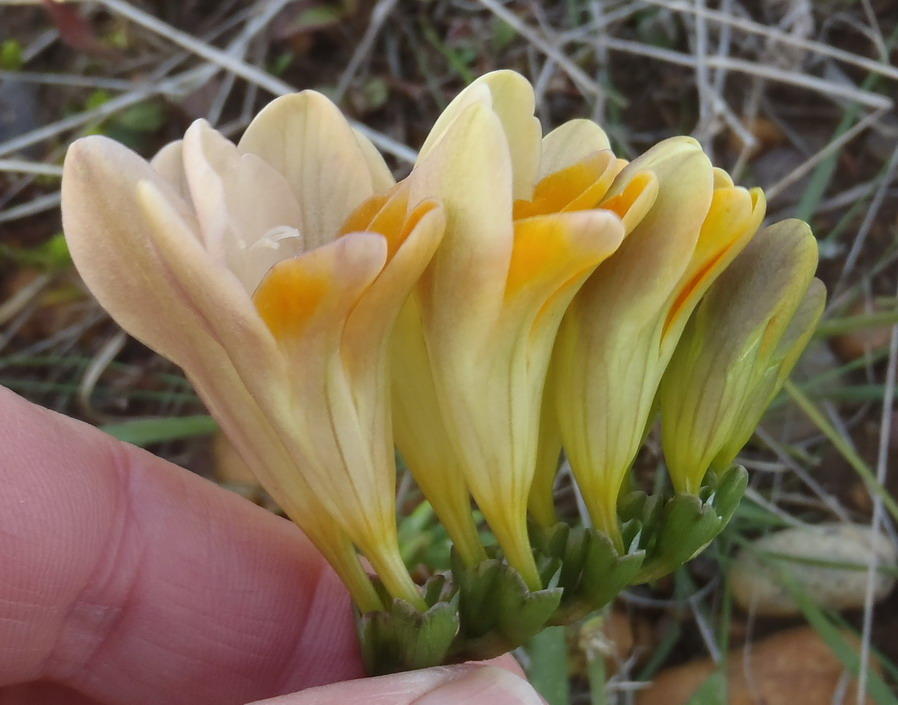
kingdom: Plantae
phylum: Tracheophyta
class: Liliopsida
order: Asparagales
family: Iridaceae
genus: Freesia
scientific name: Freesia fergusoniae
